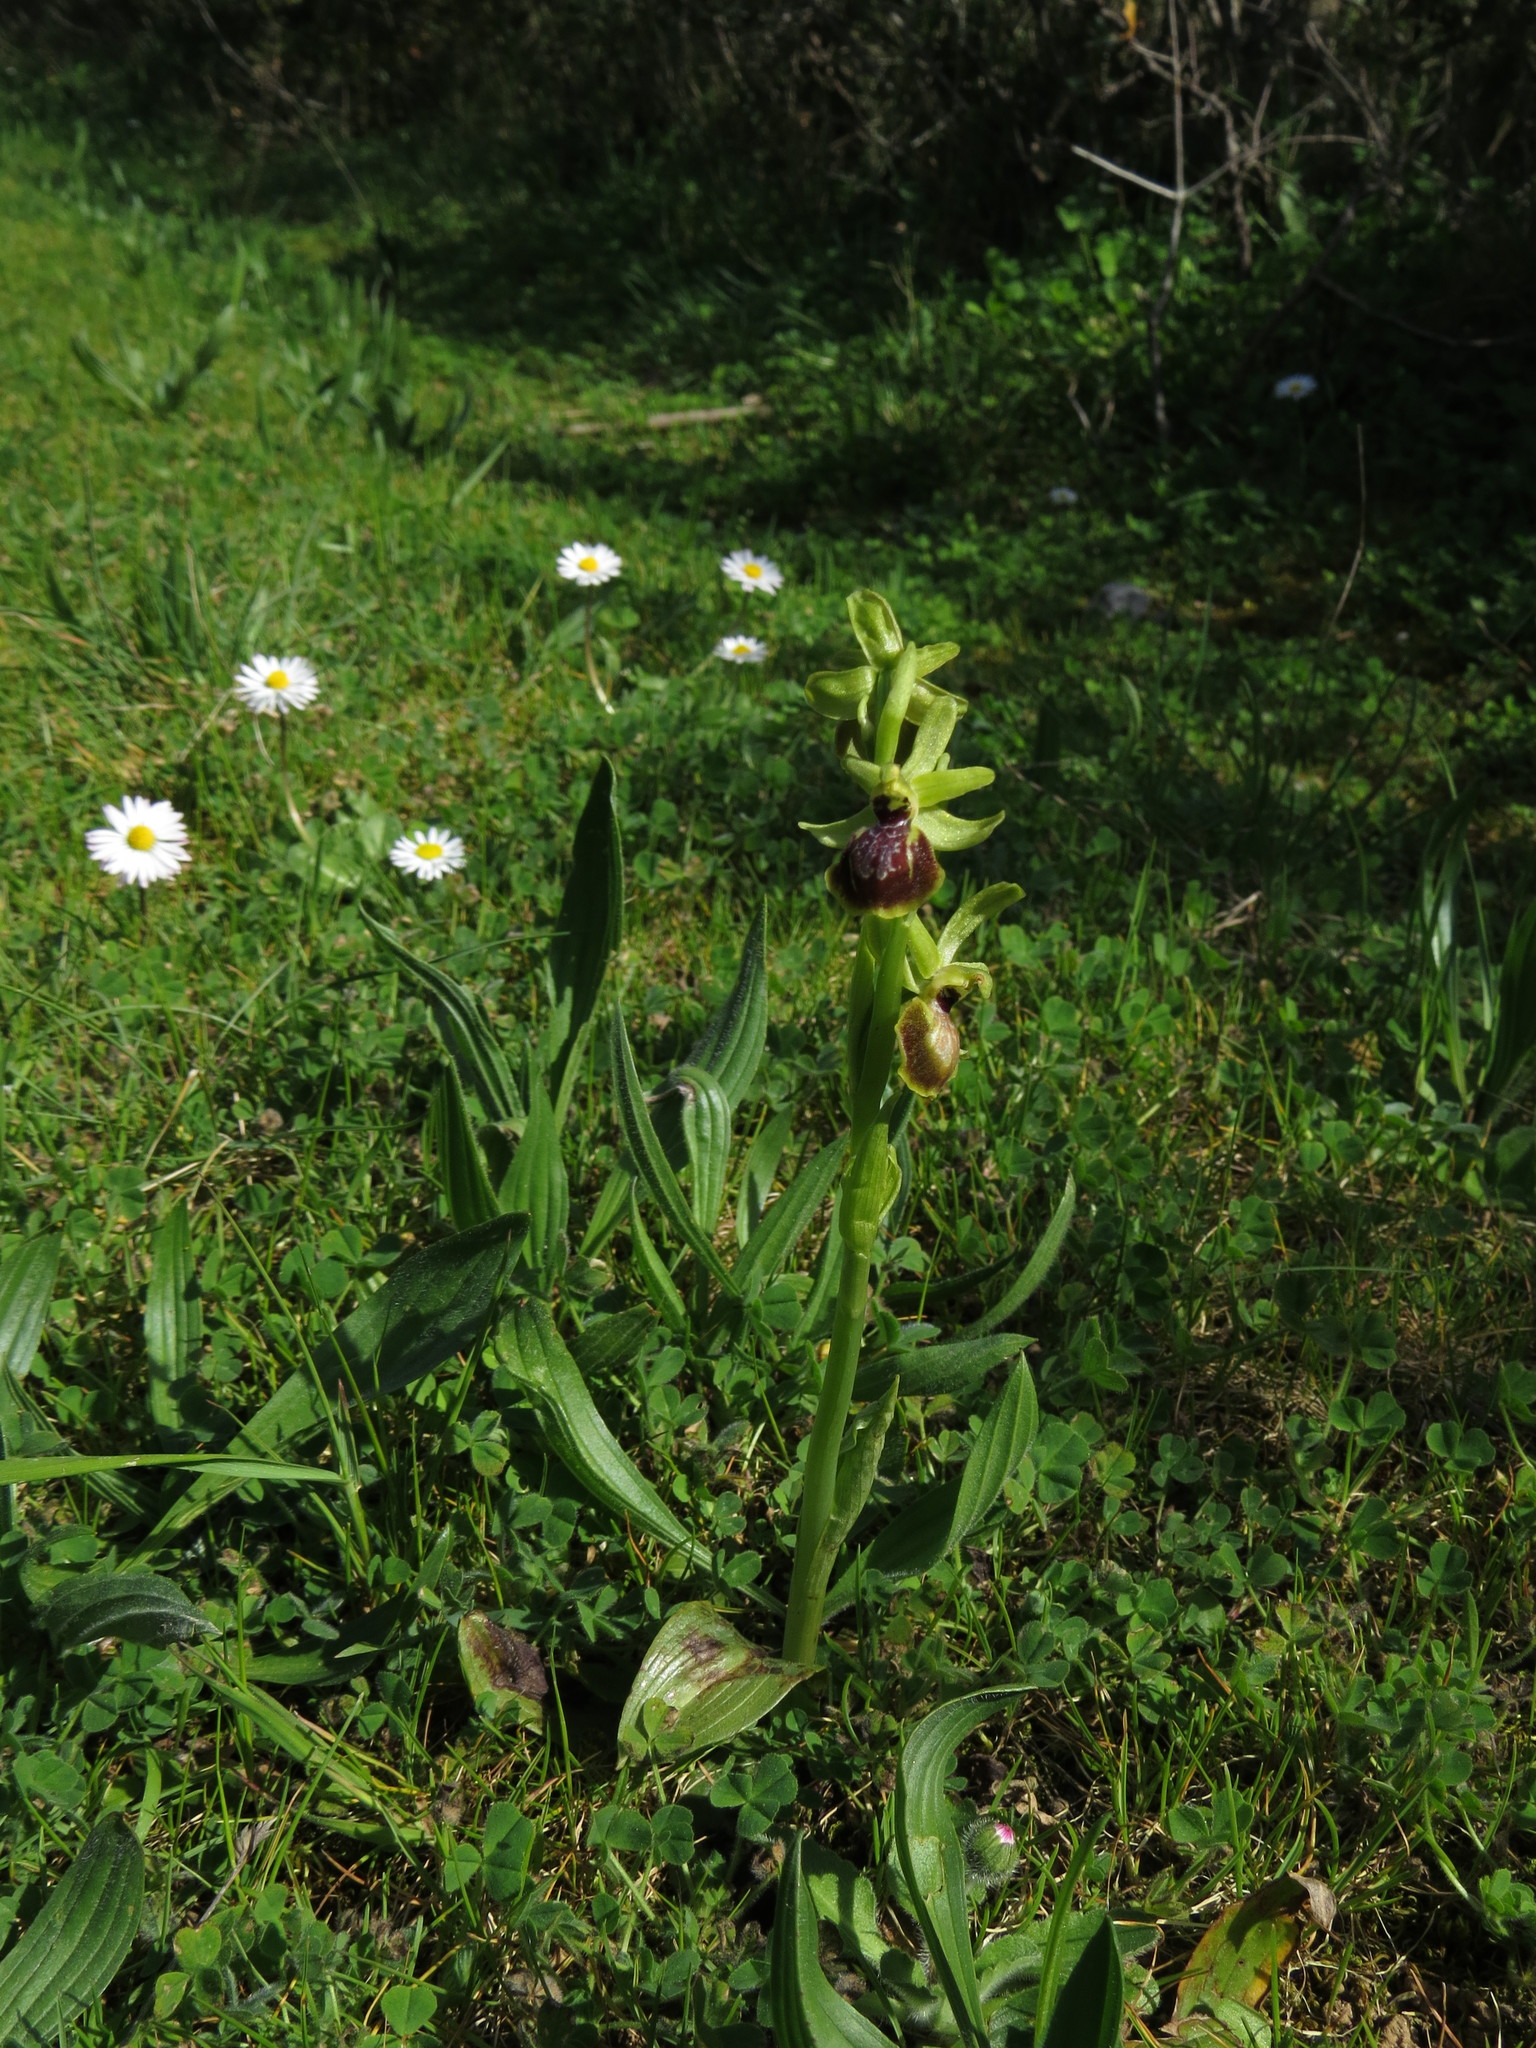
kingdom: Plantae
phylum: Tracheophyta
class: Liliopsida
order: Asparagales
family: Orchidaceae
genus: Ophrys
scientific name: Ophrys sphegodes
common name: Early spider-orchid
